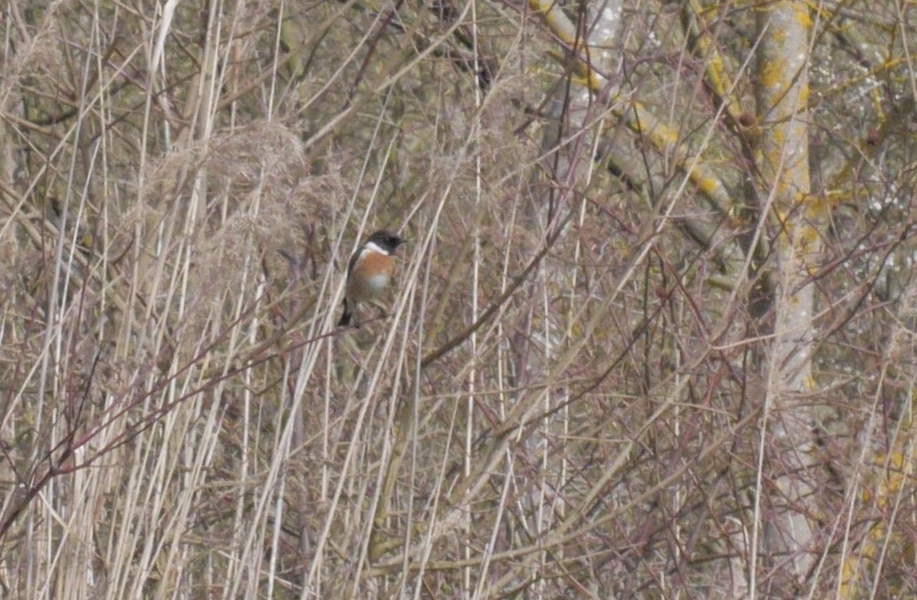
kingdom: Animalia
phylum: Chordata
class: Aves
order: Passeriformes
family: Muscicapidae
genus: Saxicola
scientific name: Saxicola rubicola
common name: European stonechat
